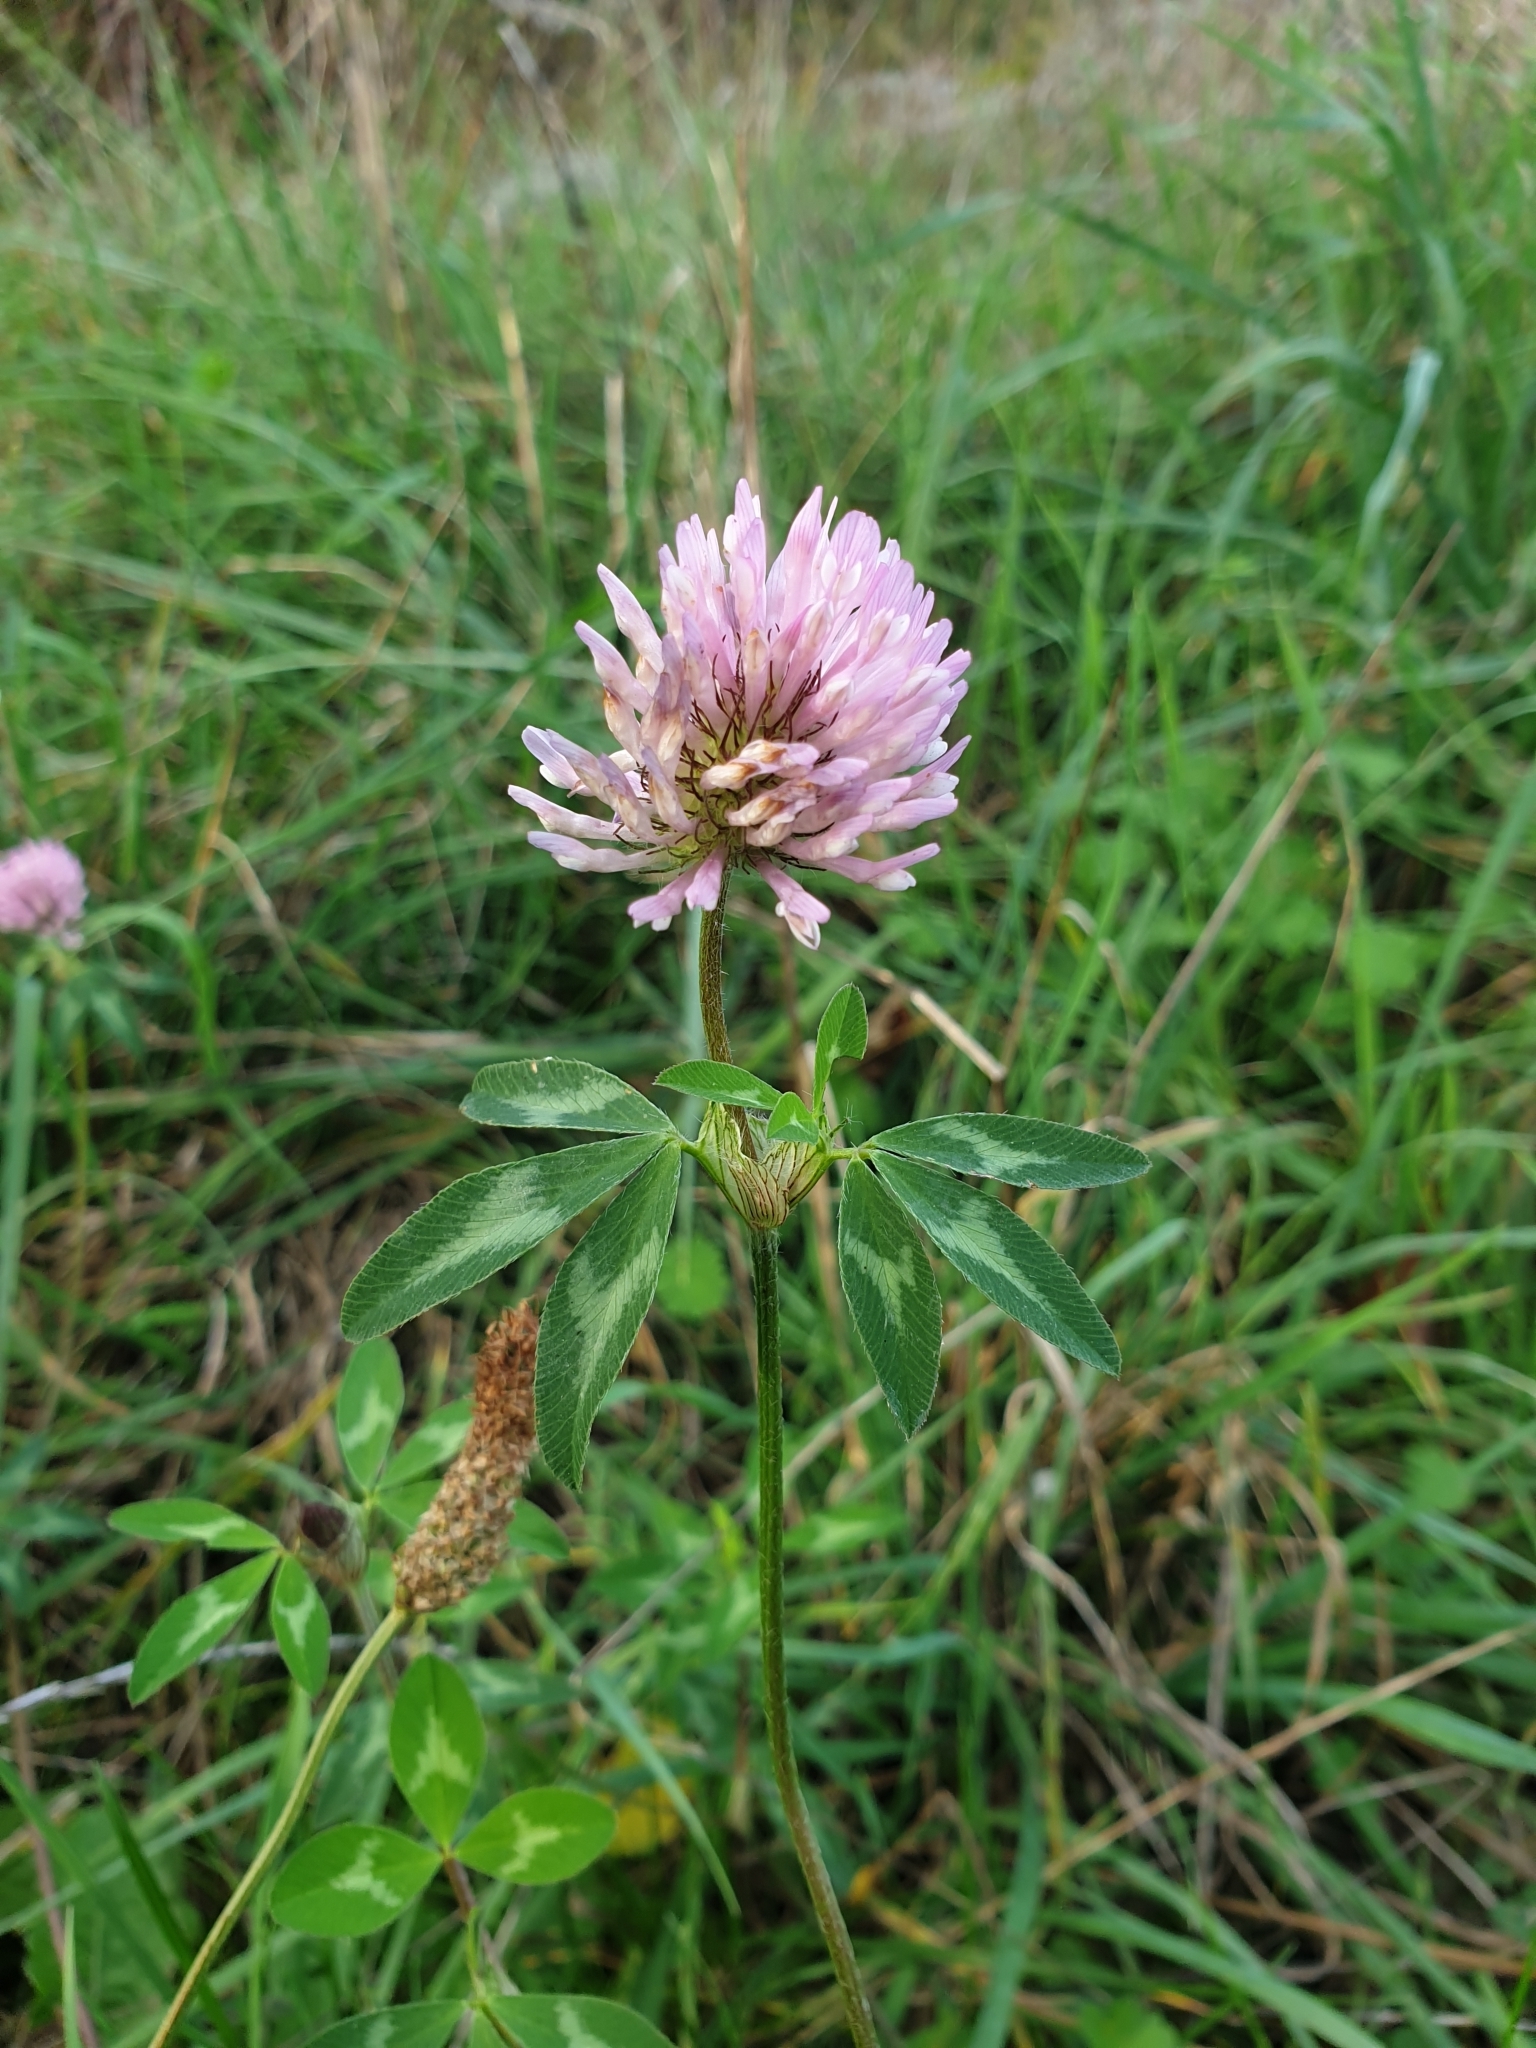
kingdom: Plantae
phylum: Tracheophyta
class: Magnoliopsida
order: Fabales
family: Fabaceae
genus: Trifolium
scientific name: Trifolium pratense
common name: Red clover
